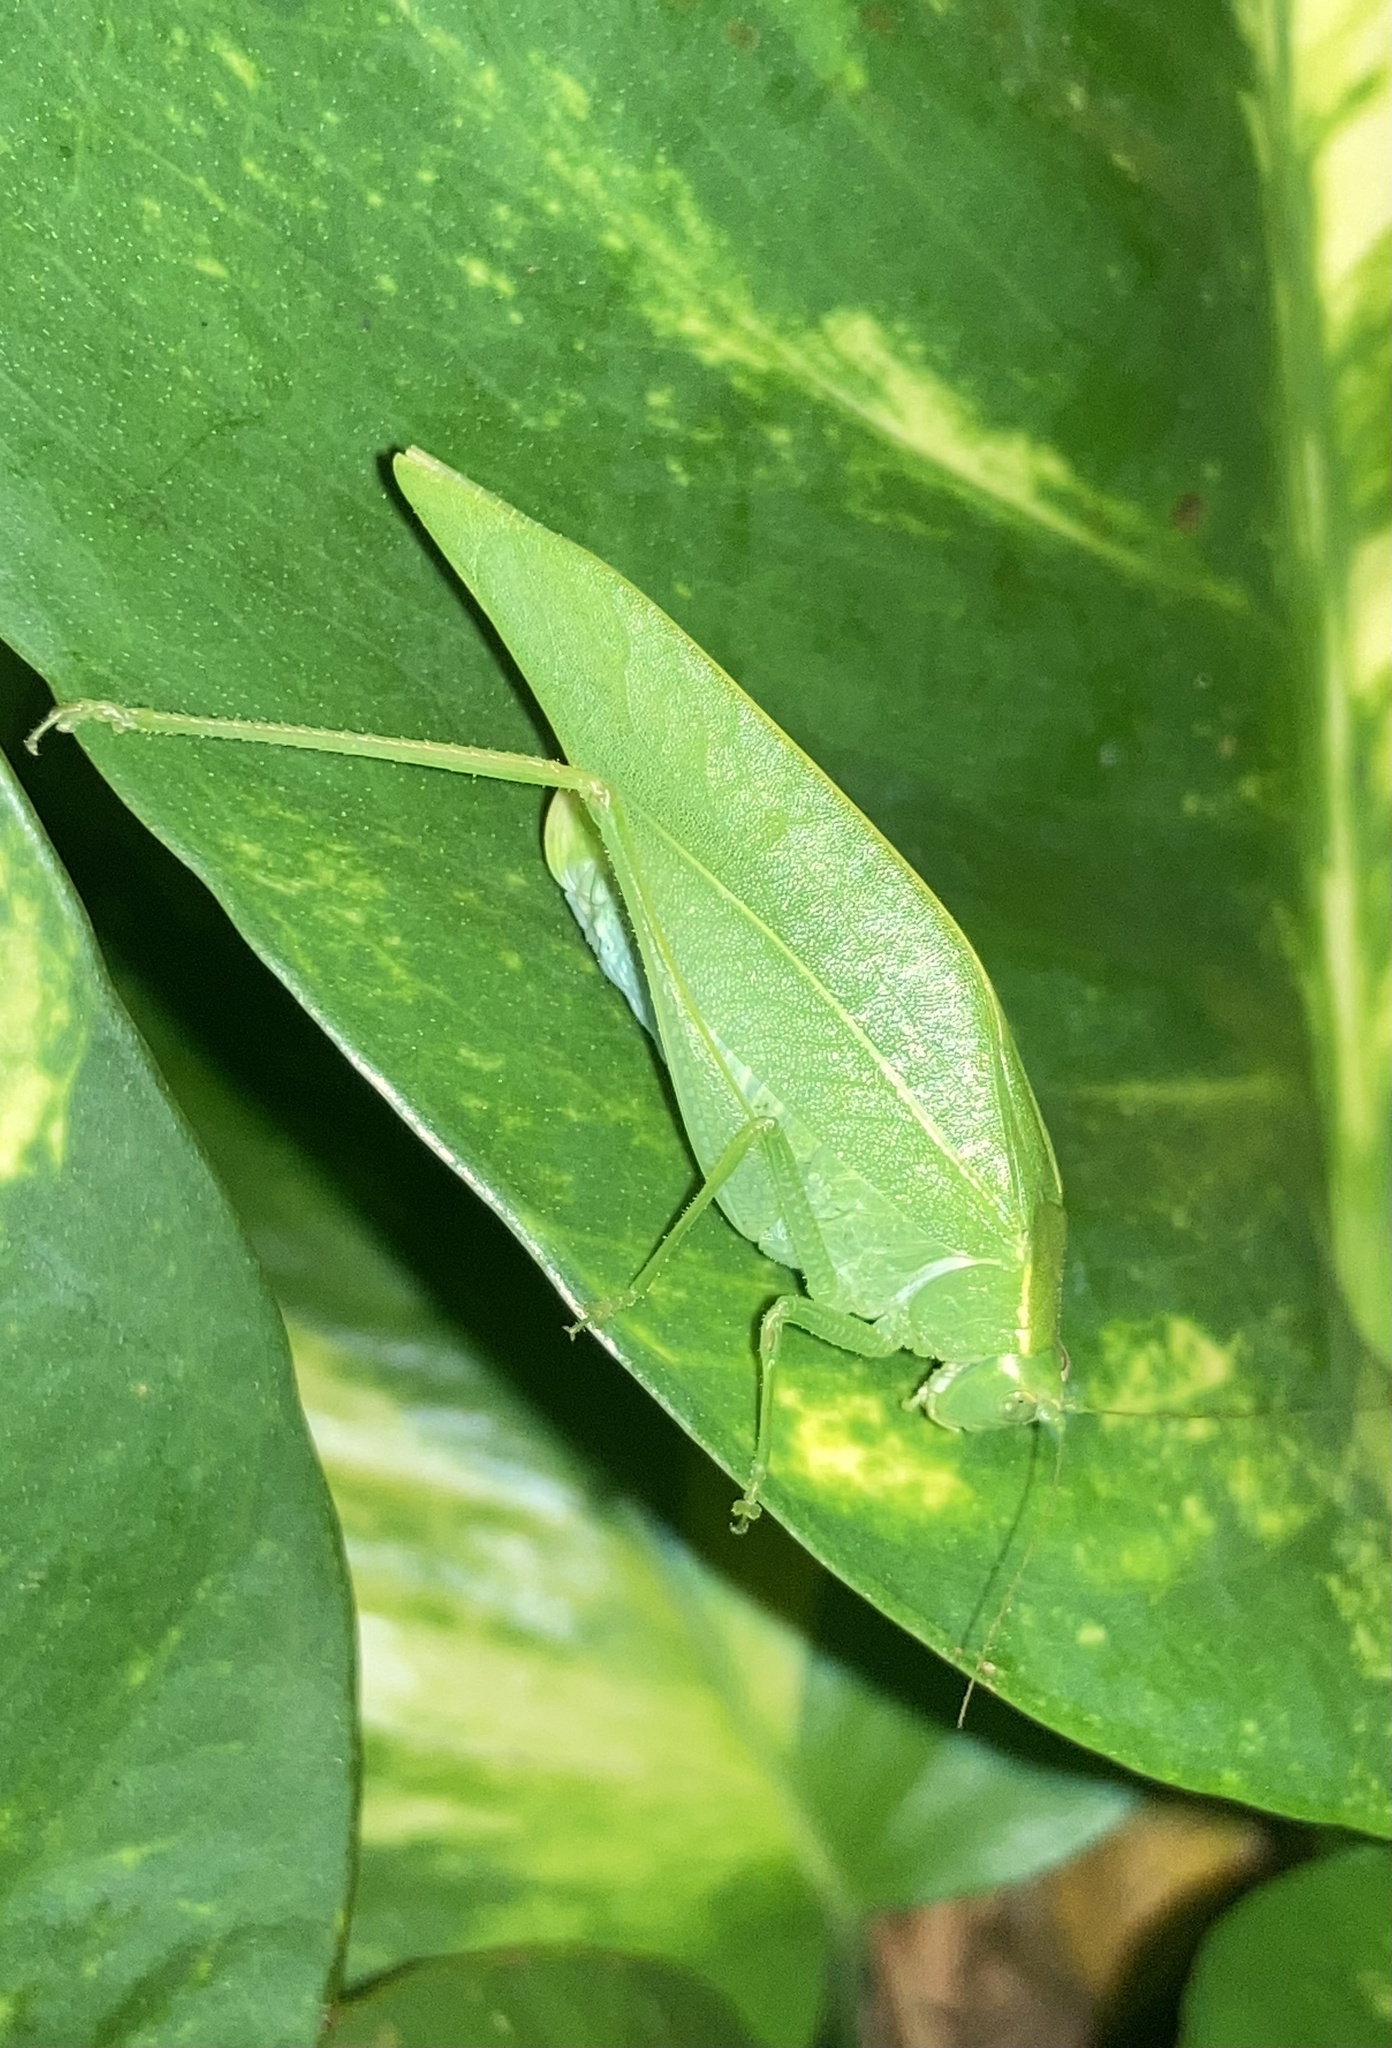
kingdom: Animalia
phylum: Arthropoda
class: Insecta
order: Orthoptera
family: Tettigoniidae
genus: Turpilia
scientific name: Turpilia rostrata
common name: Narrow-beaked katydid
